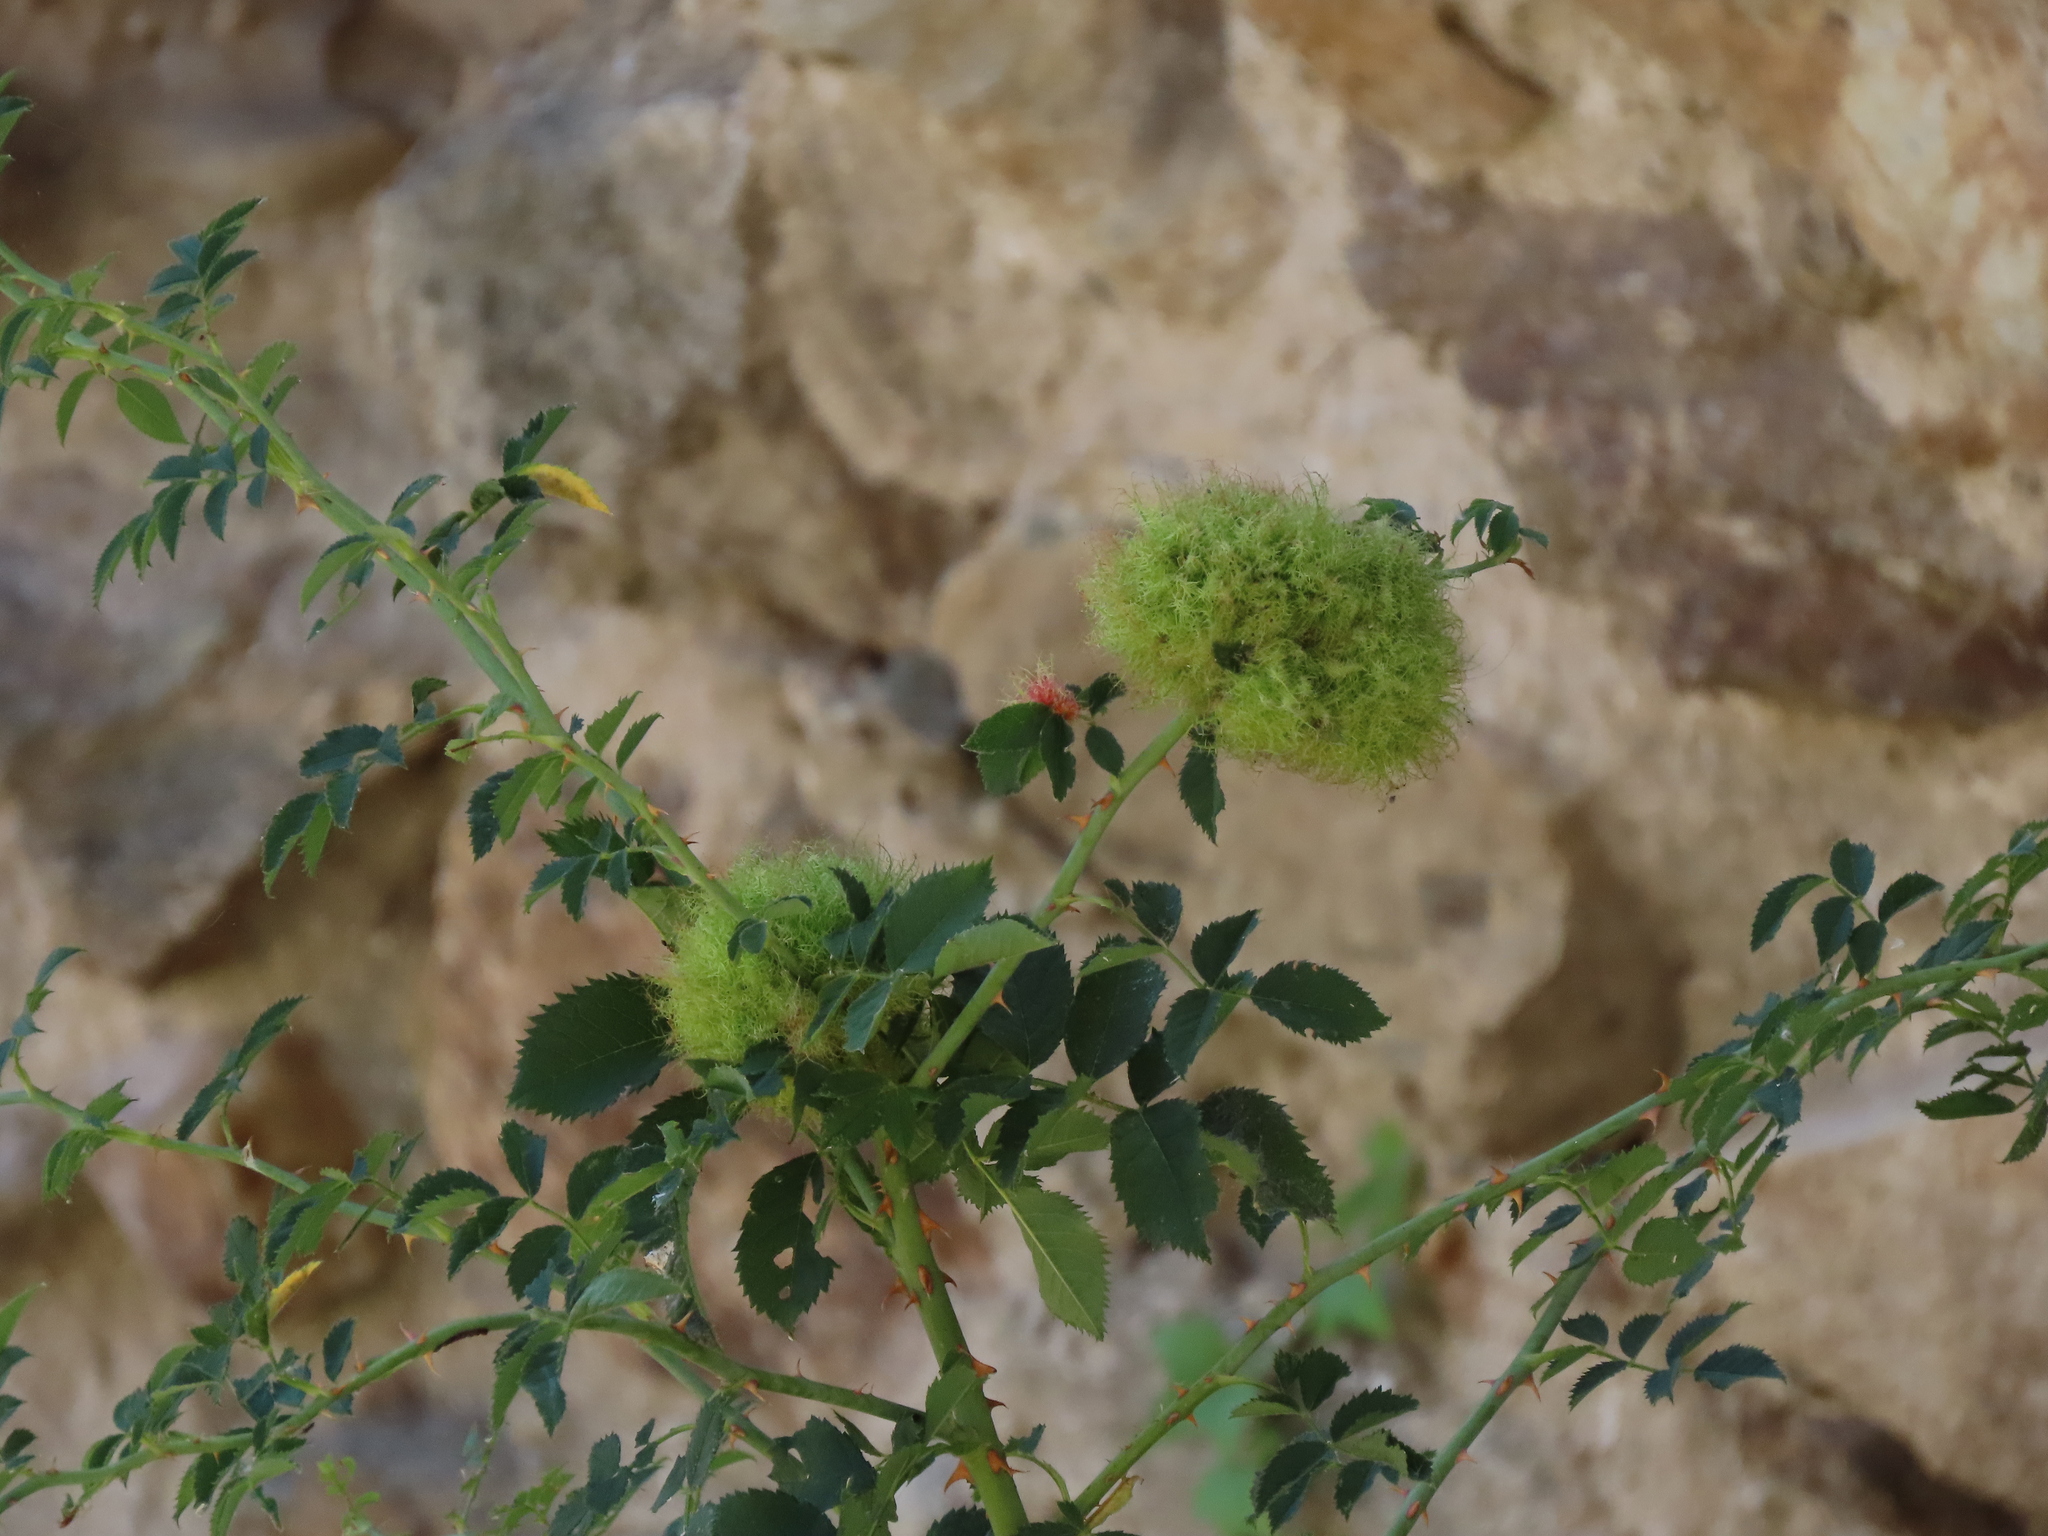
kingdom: Animalia
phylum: Arthropoda
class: Insecta
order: Hymenoptera
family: Cynipidae
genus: Diplolepis
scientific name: Diplolepis rosae
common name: Bedeguar gall
